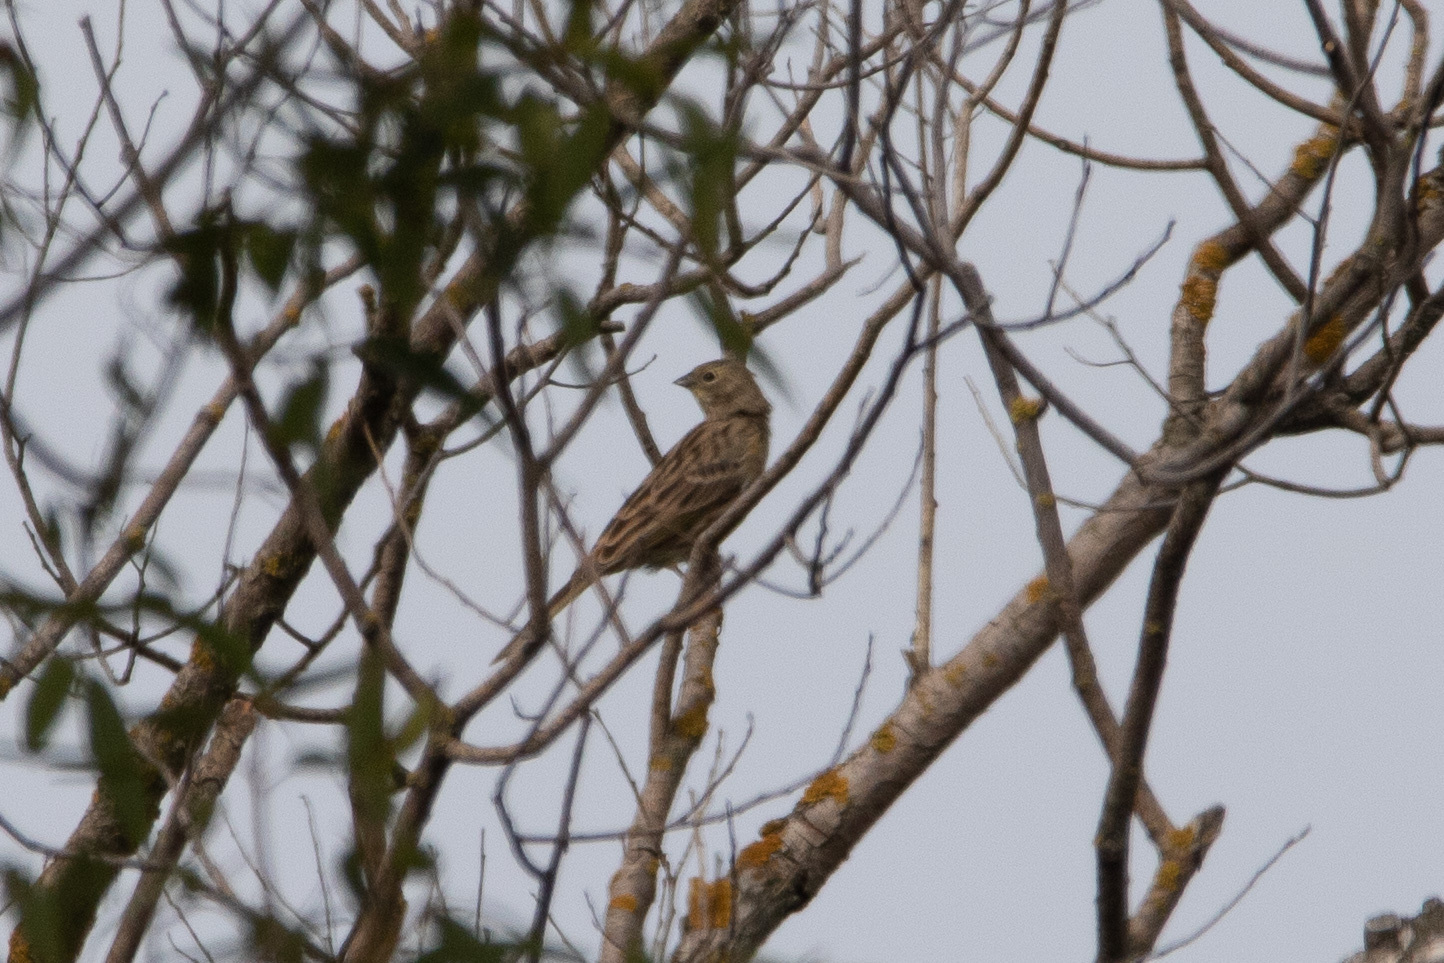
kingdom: Animalia
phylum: Chordata
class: Aves
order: Passeriformes
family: Emberizidae
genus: Emberiza
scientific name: Emberiza citrinella
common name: Yellowhammer
